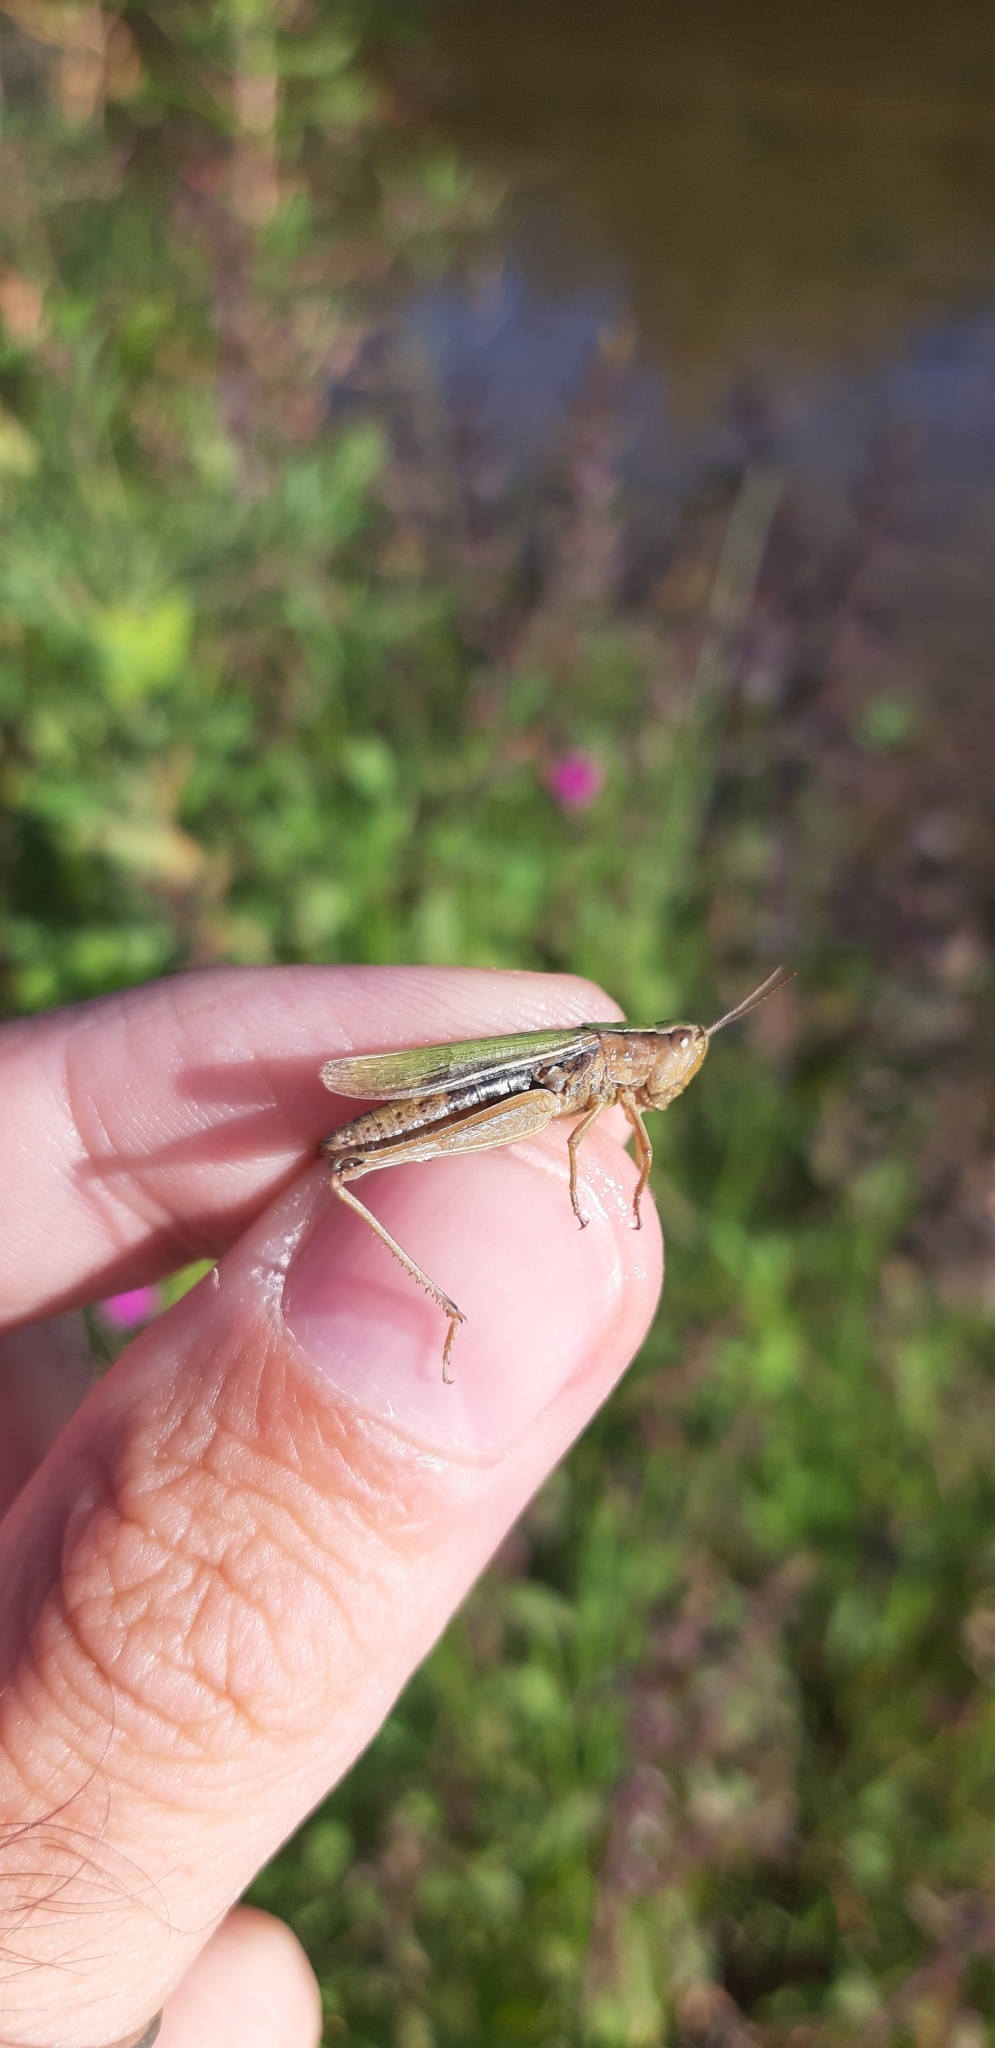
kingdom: Animalia
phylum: Arthropoda
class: Insecta
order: Orthoptera
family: Acrididae
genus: Chorthippus
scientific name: Chorthippus albomarginatus
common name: Lesser marsh grasshopper
